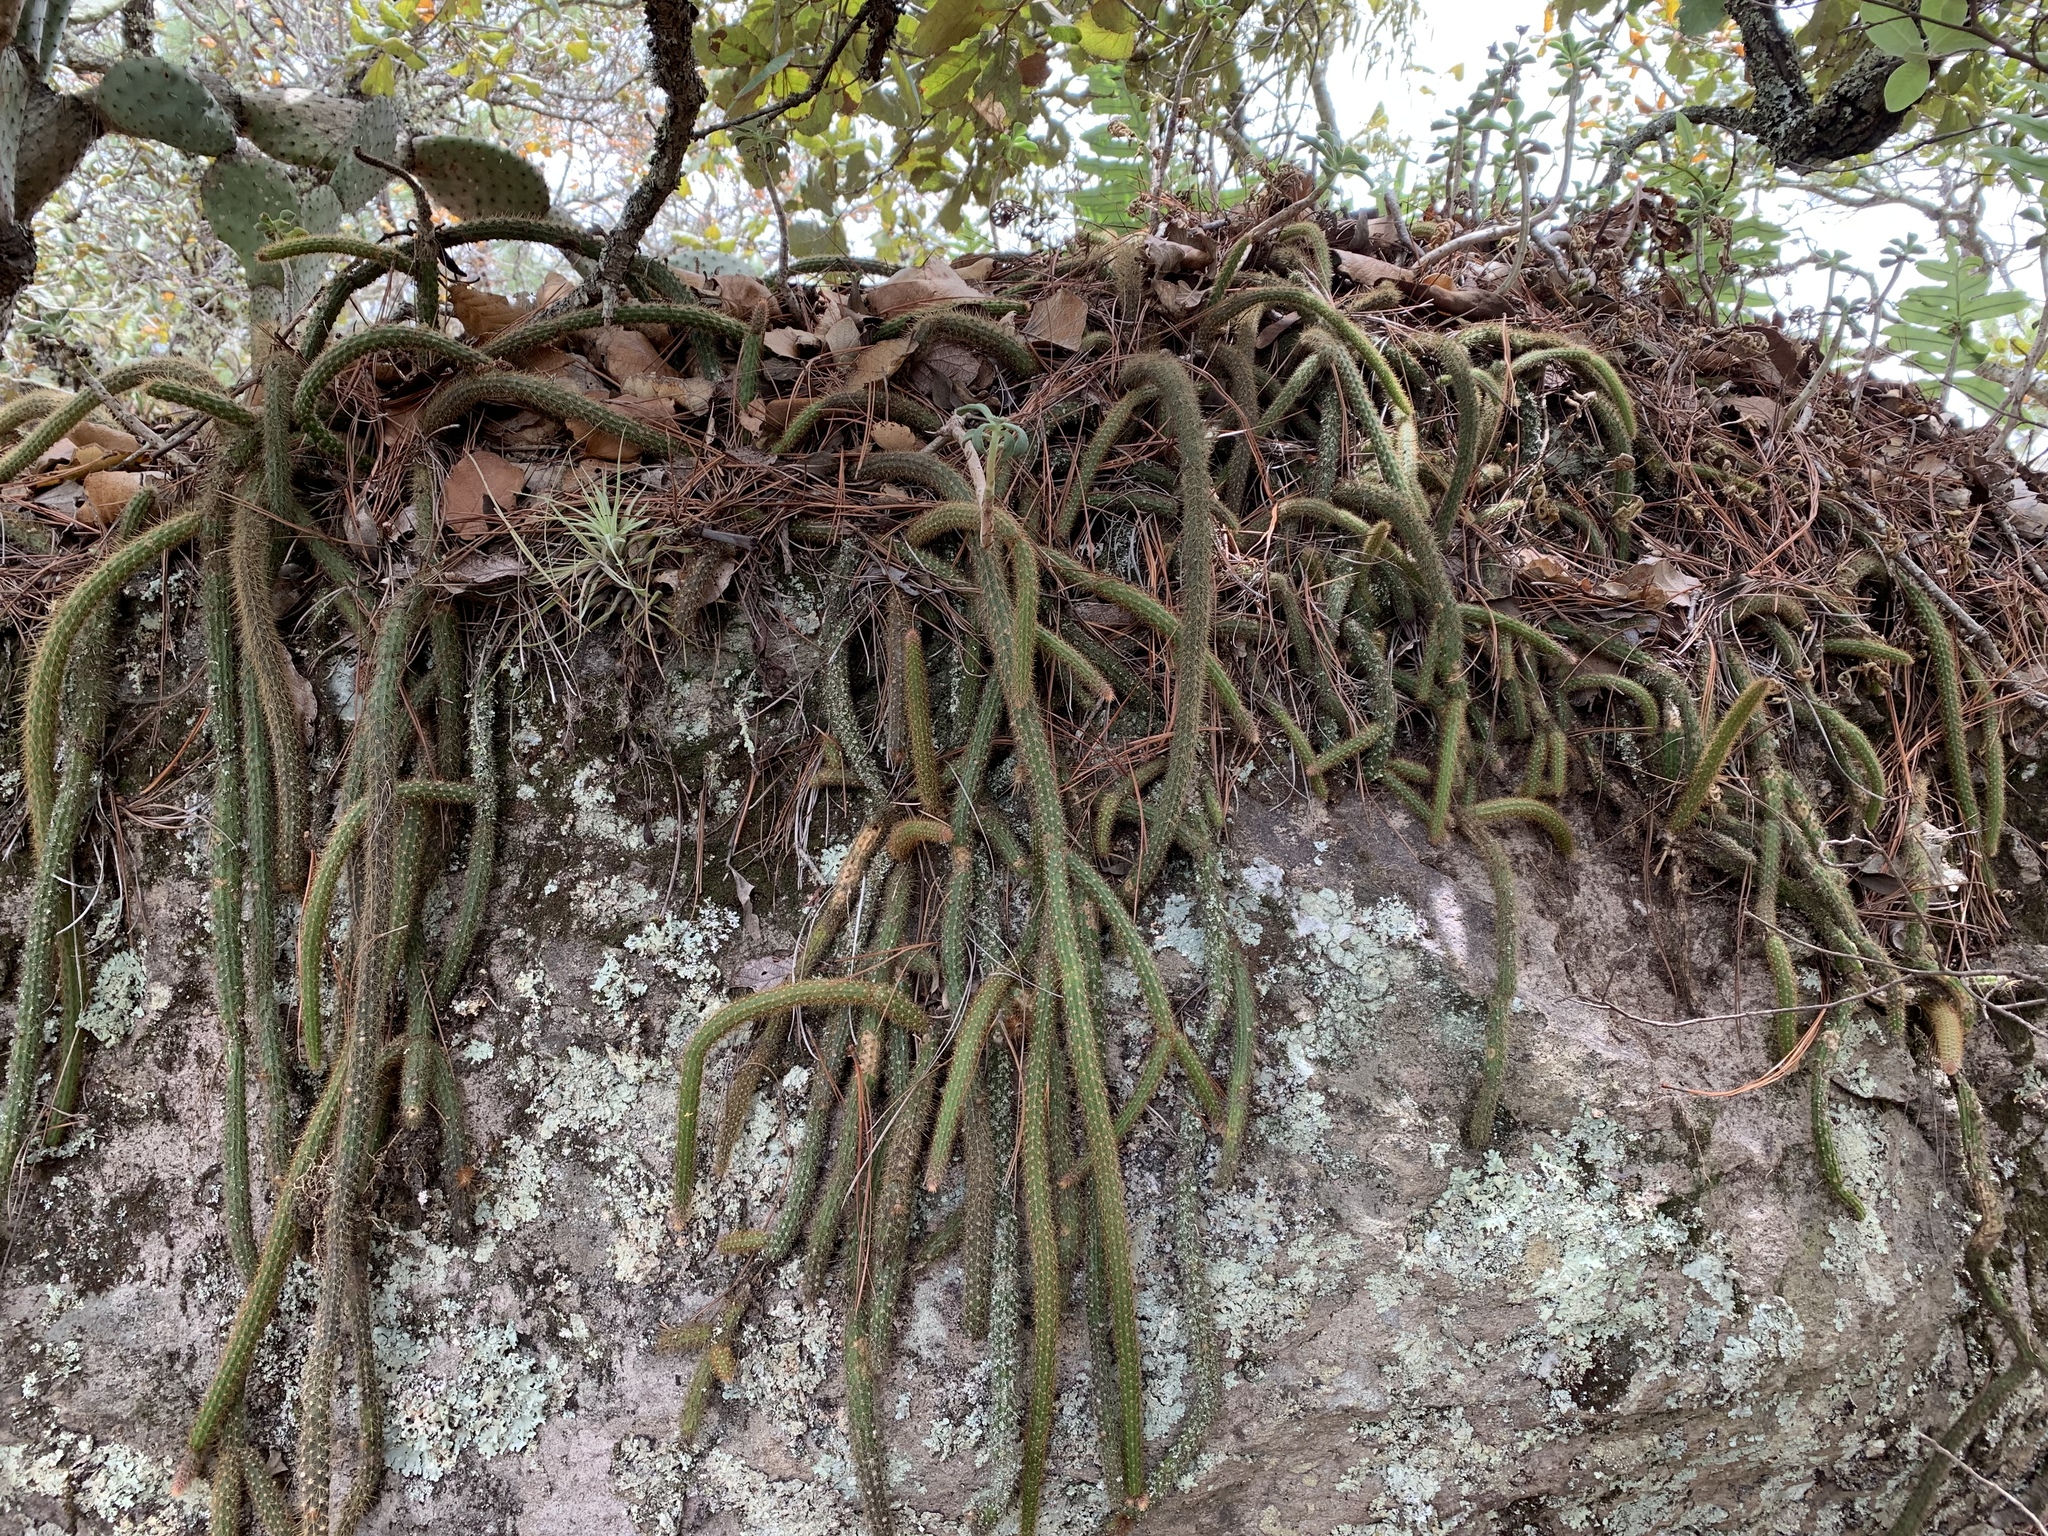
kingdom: Plantae
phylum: Tracheophyta
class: Magnoliopsida
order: Caryophyllales
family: Cactaceae
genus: Aporocactus
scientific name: Aporocactus martianus
